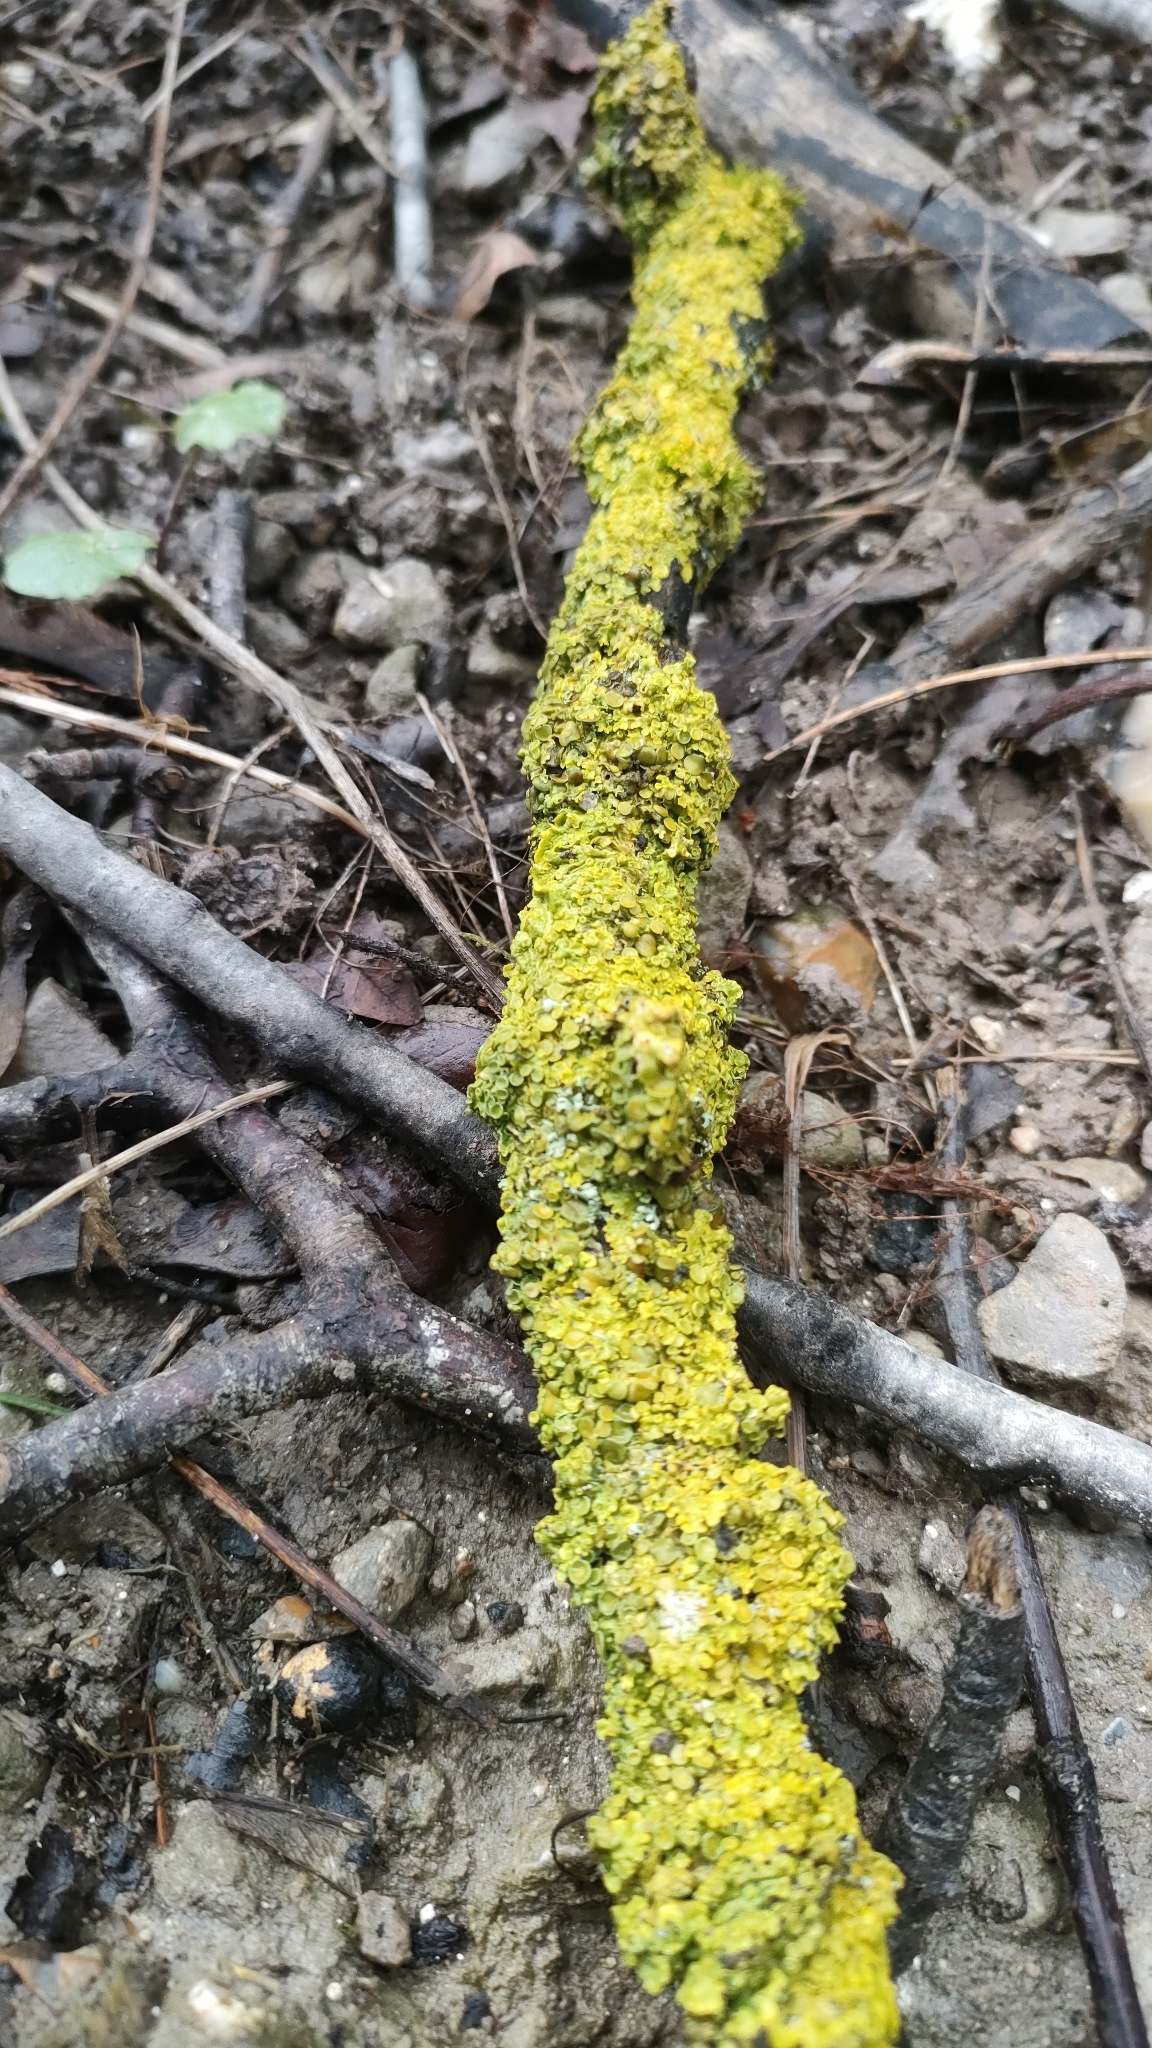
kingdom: Fungi
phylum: Ascomycota
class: Lecanoromycetes
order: Teloschistales
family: Teloschistaceae
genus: Xanthoria
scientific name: Xanthoria parietina
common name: Common orange lichen
